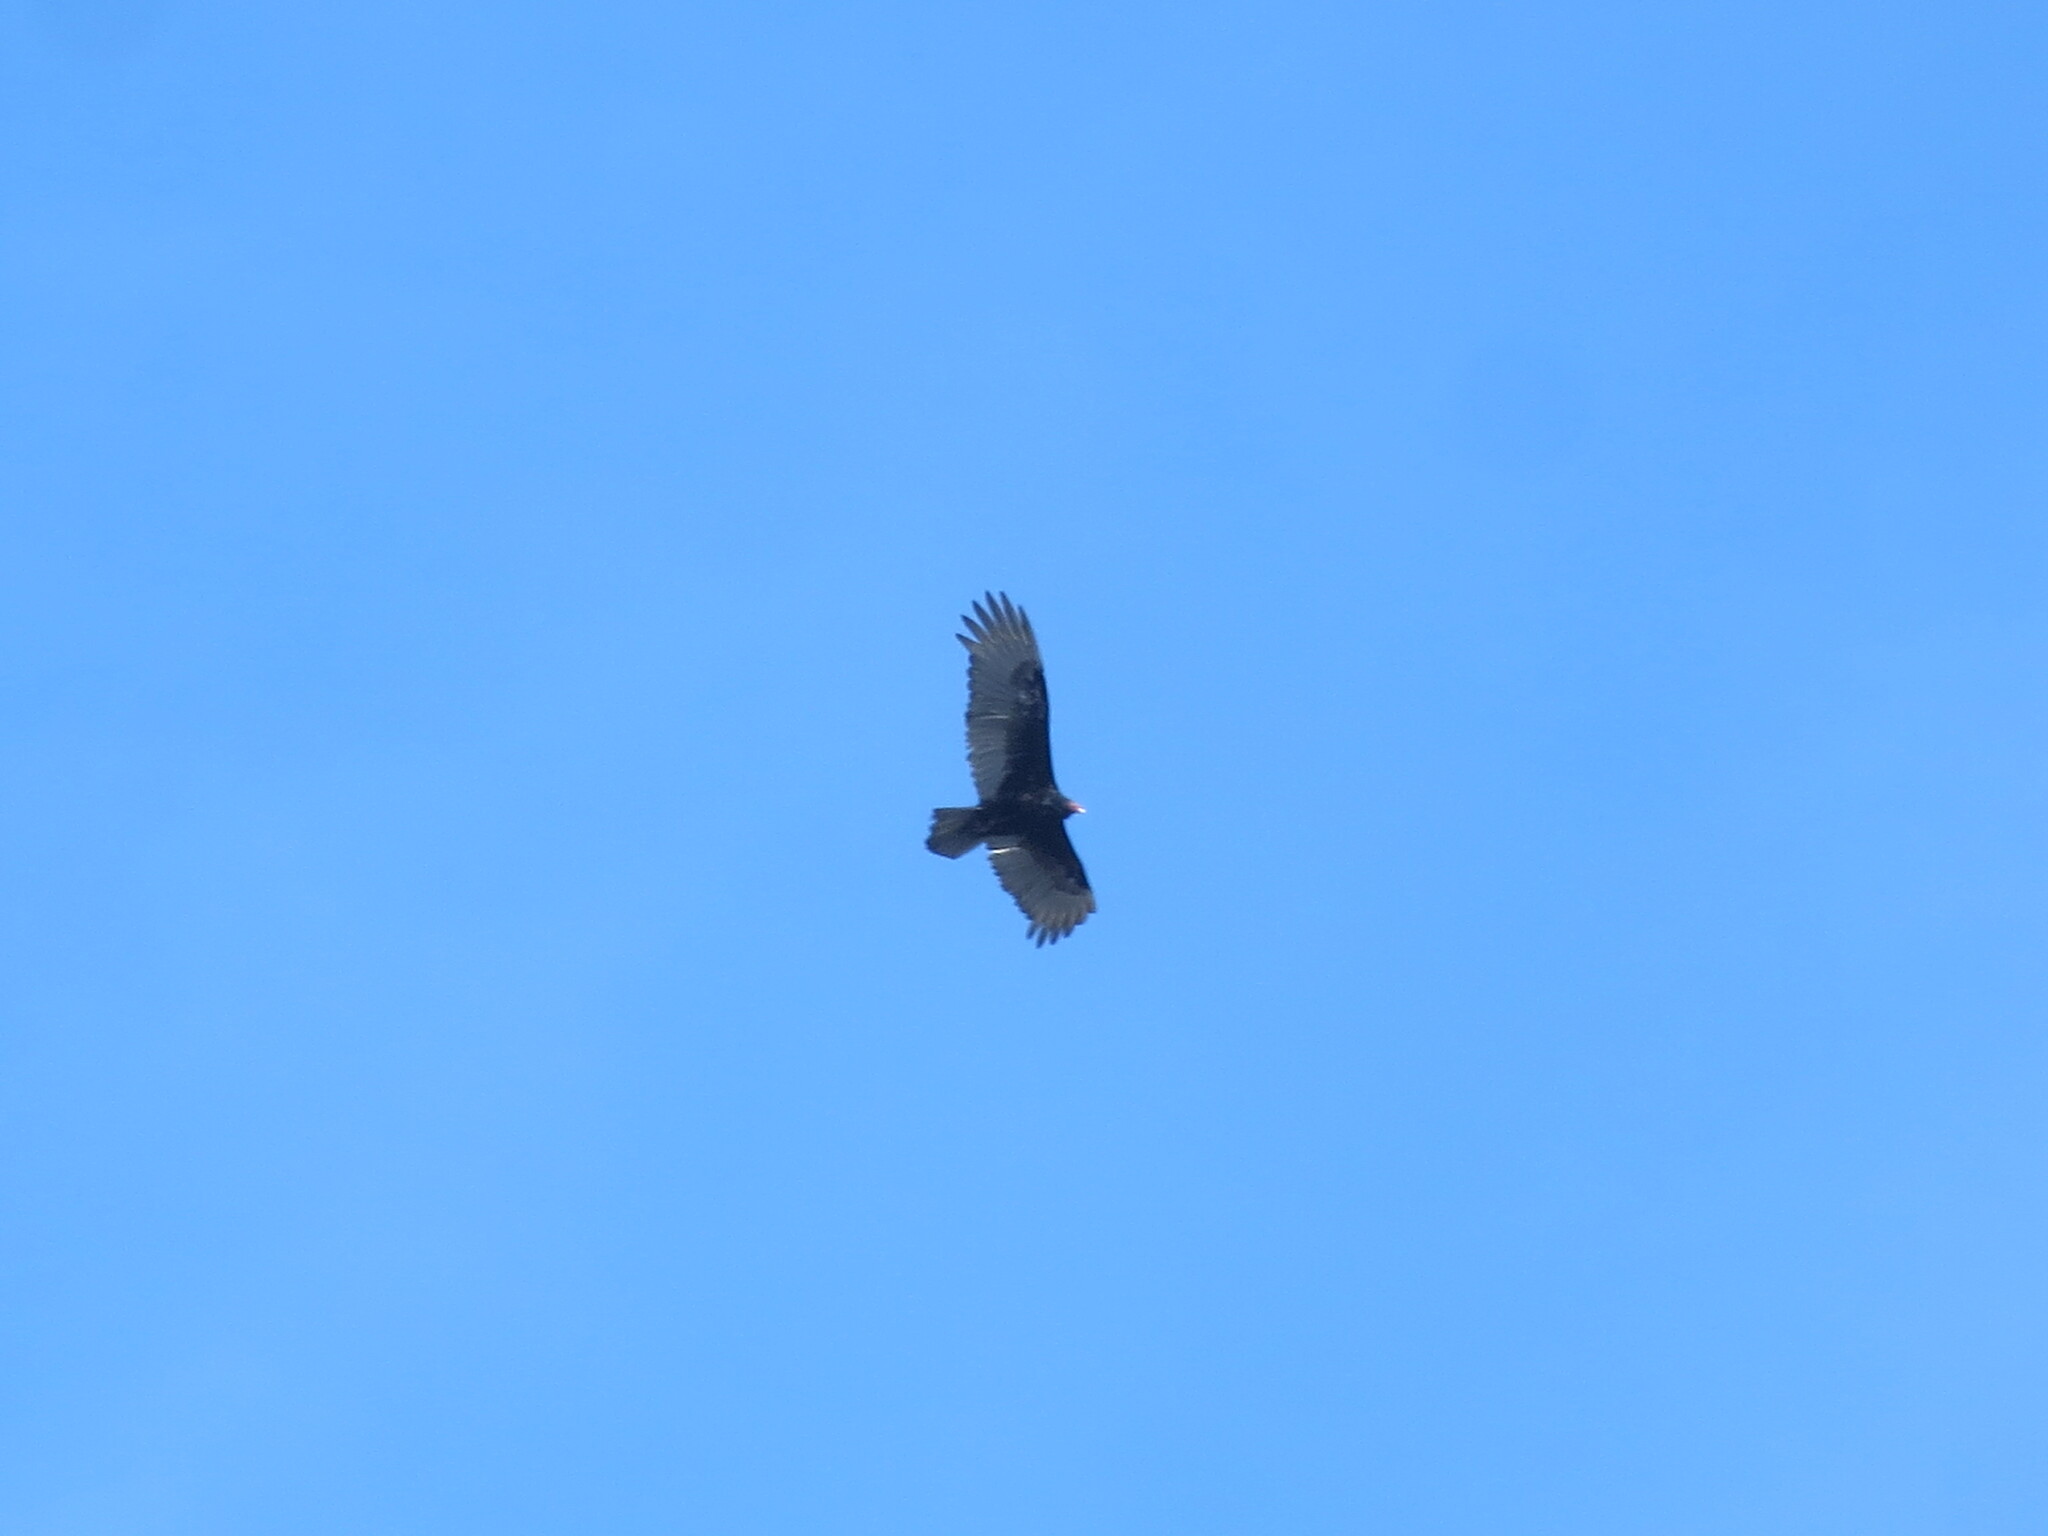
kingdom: Animalia
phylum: Chordata
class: Aves
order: Accipitriformes
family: Cathartidae
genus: Cathartes
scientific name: Cathartes aura
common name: Turkey vulture
